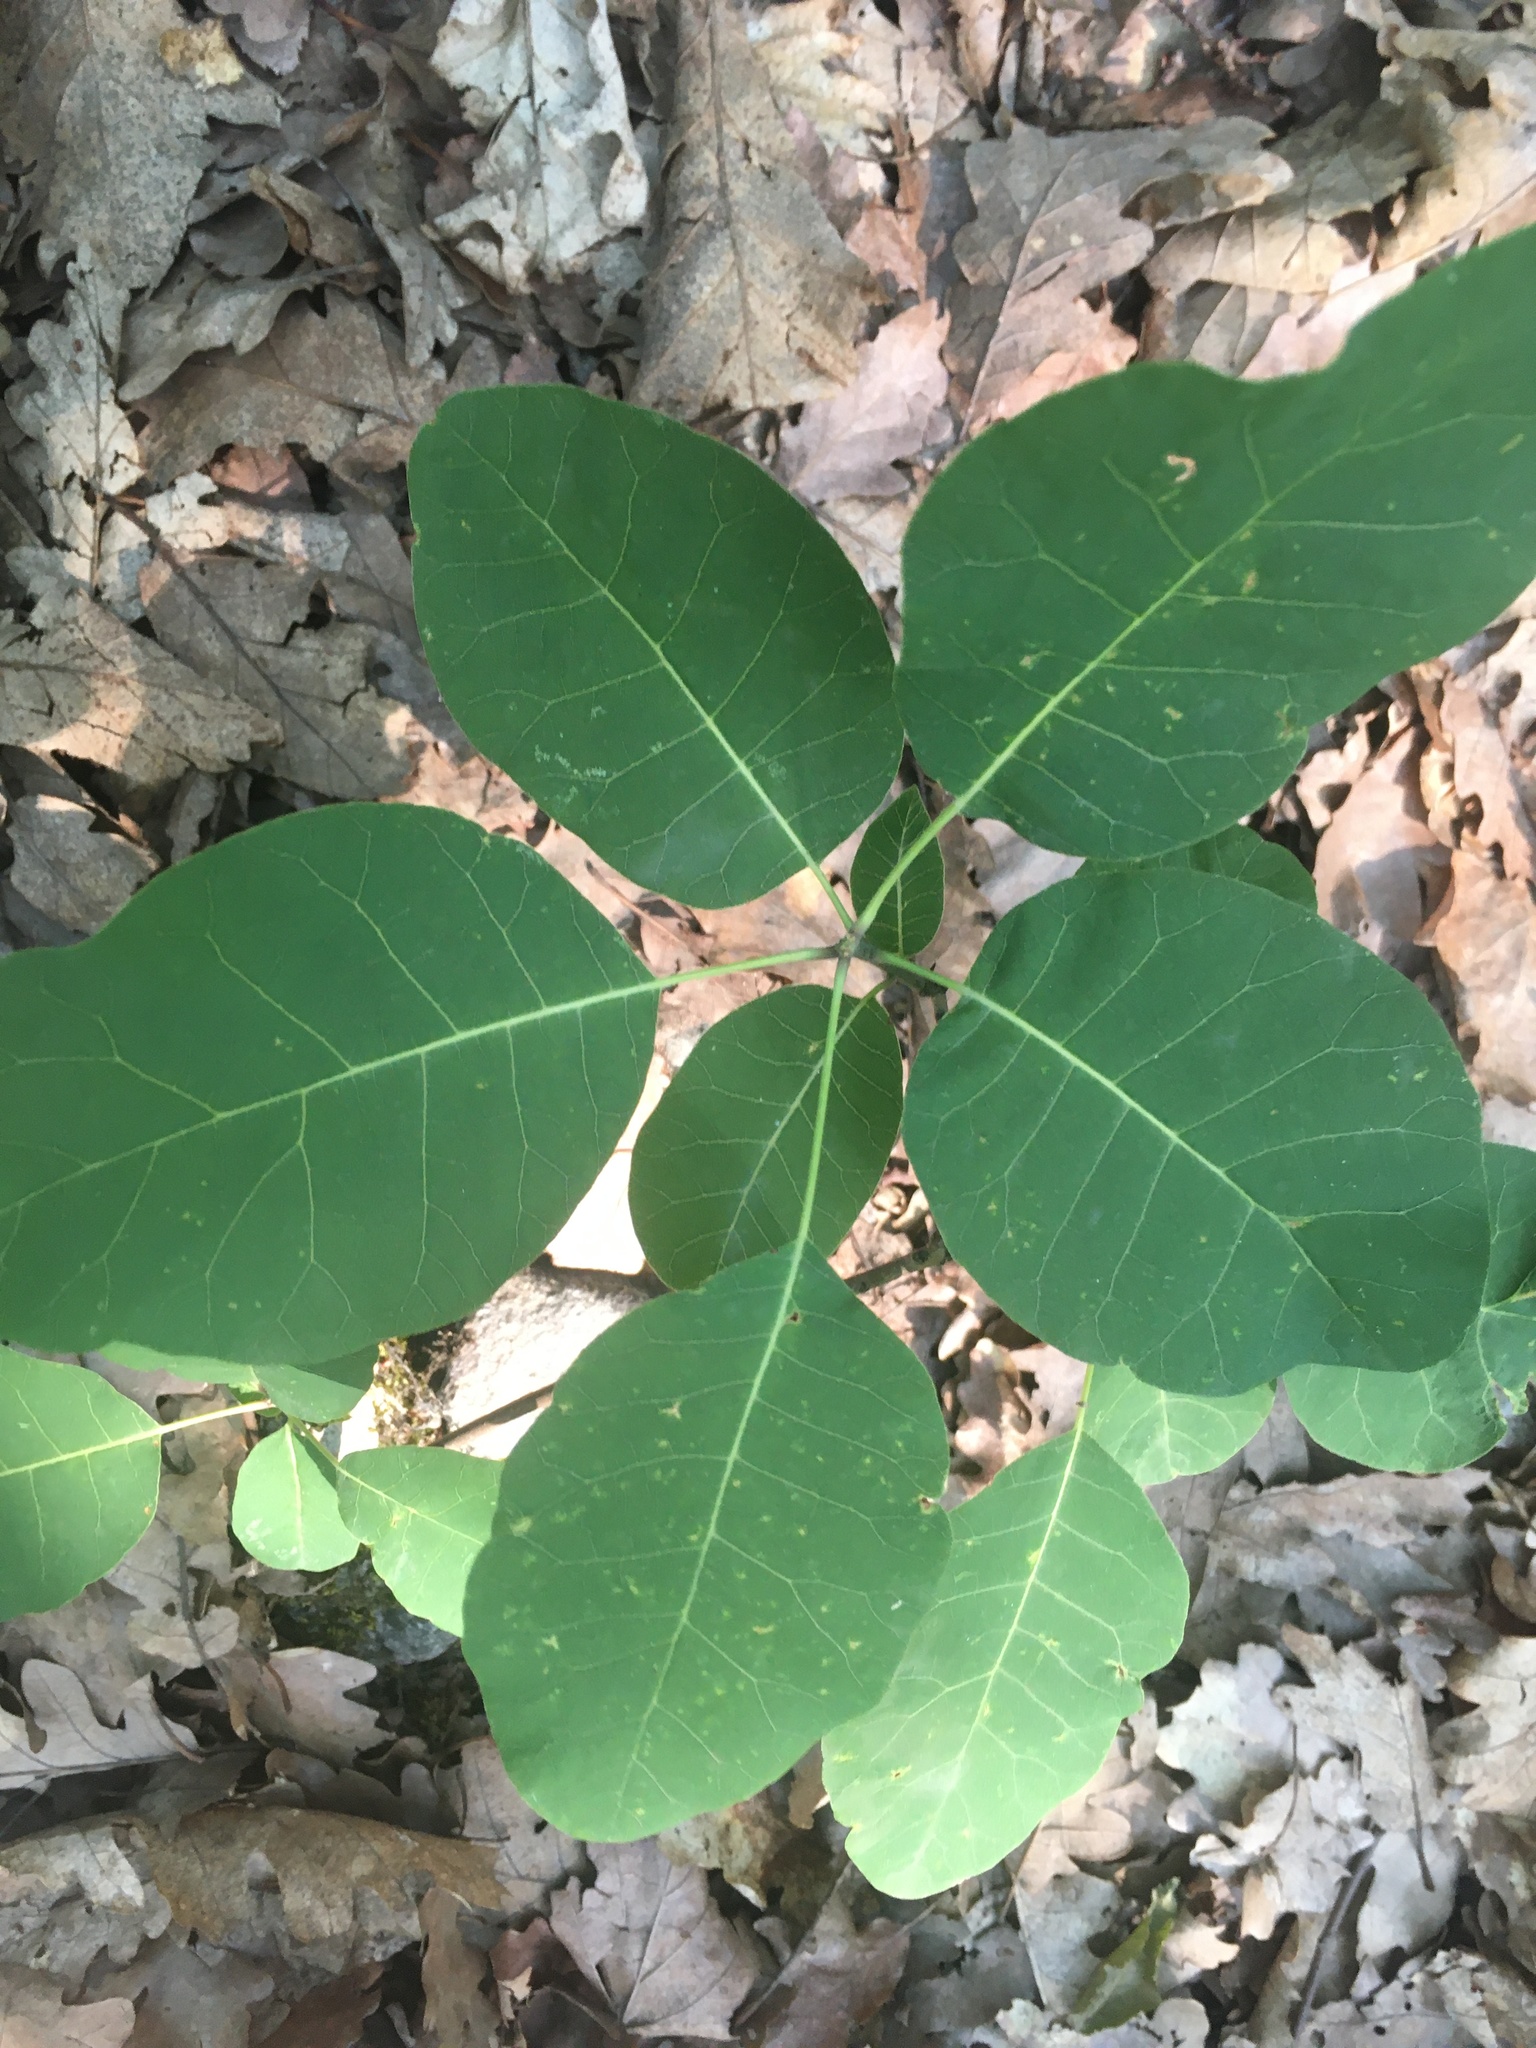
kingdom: Plantae
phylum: Tracheophyta
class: Magnoliopsida
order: Sapindales
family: Anacardiaceae
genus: Cotinus
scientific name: Cotinus coggygria
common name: Smoke-tree
